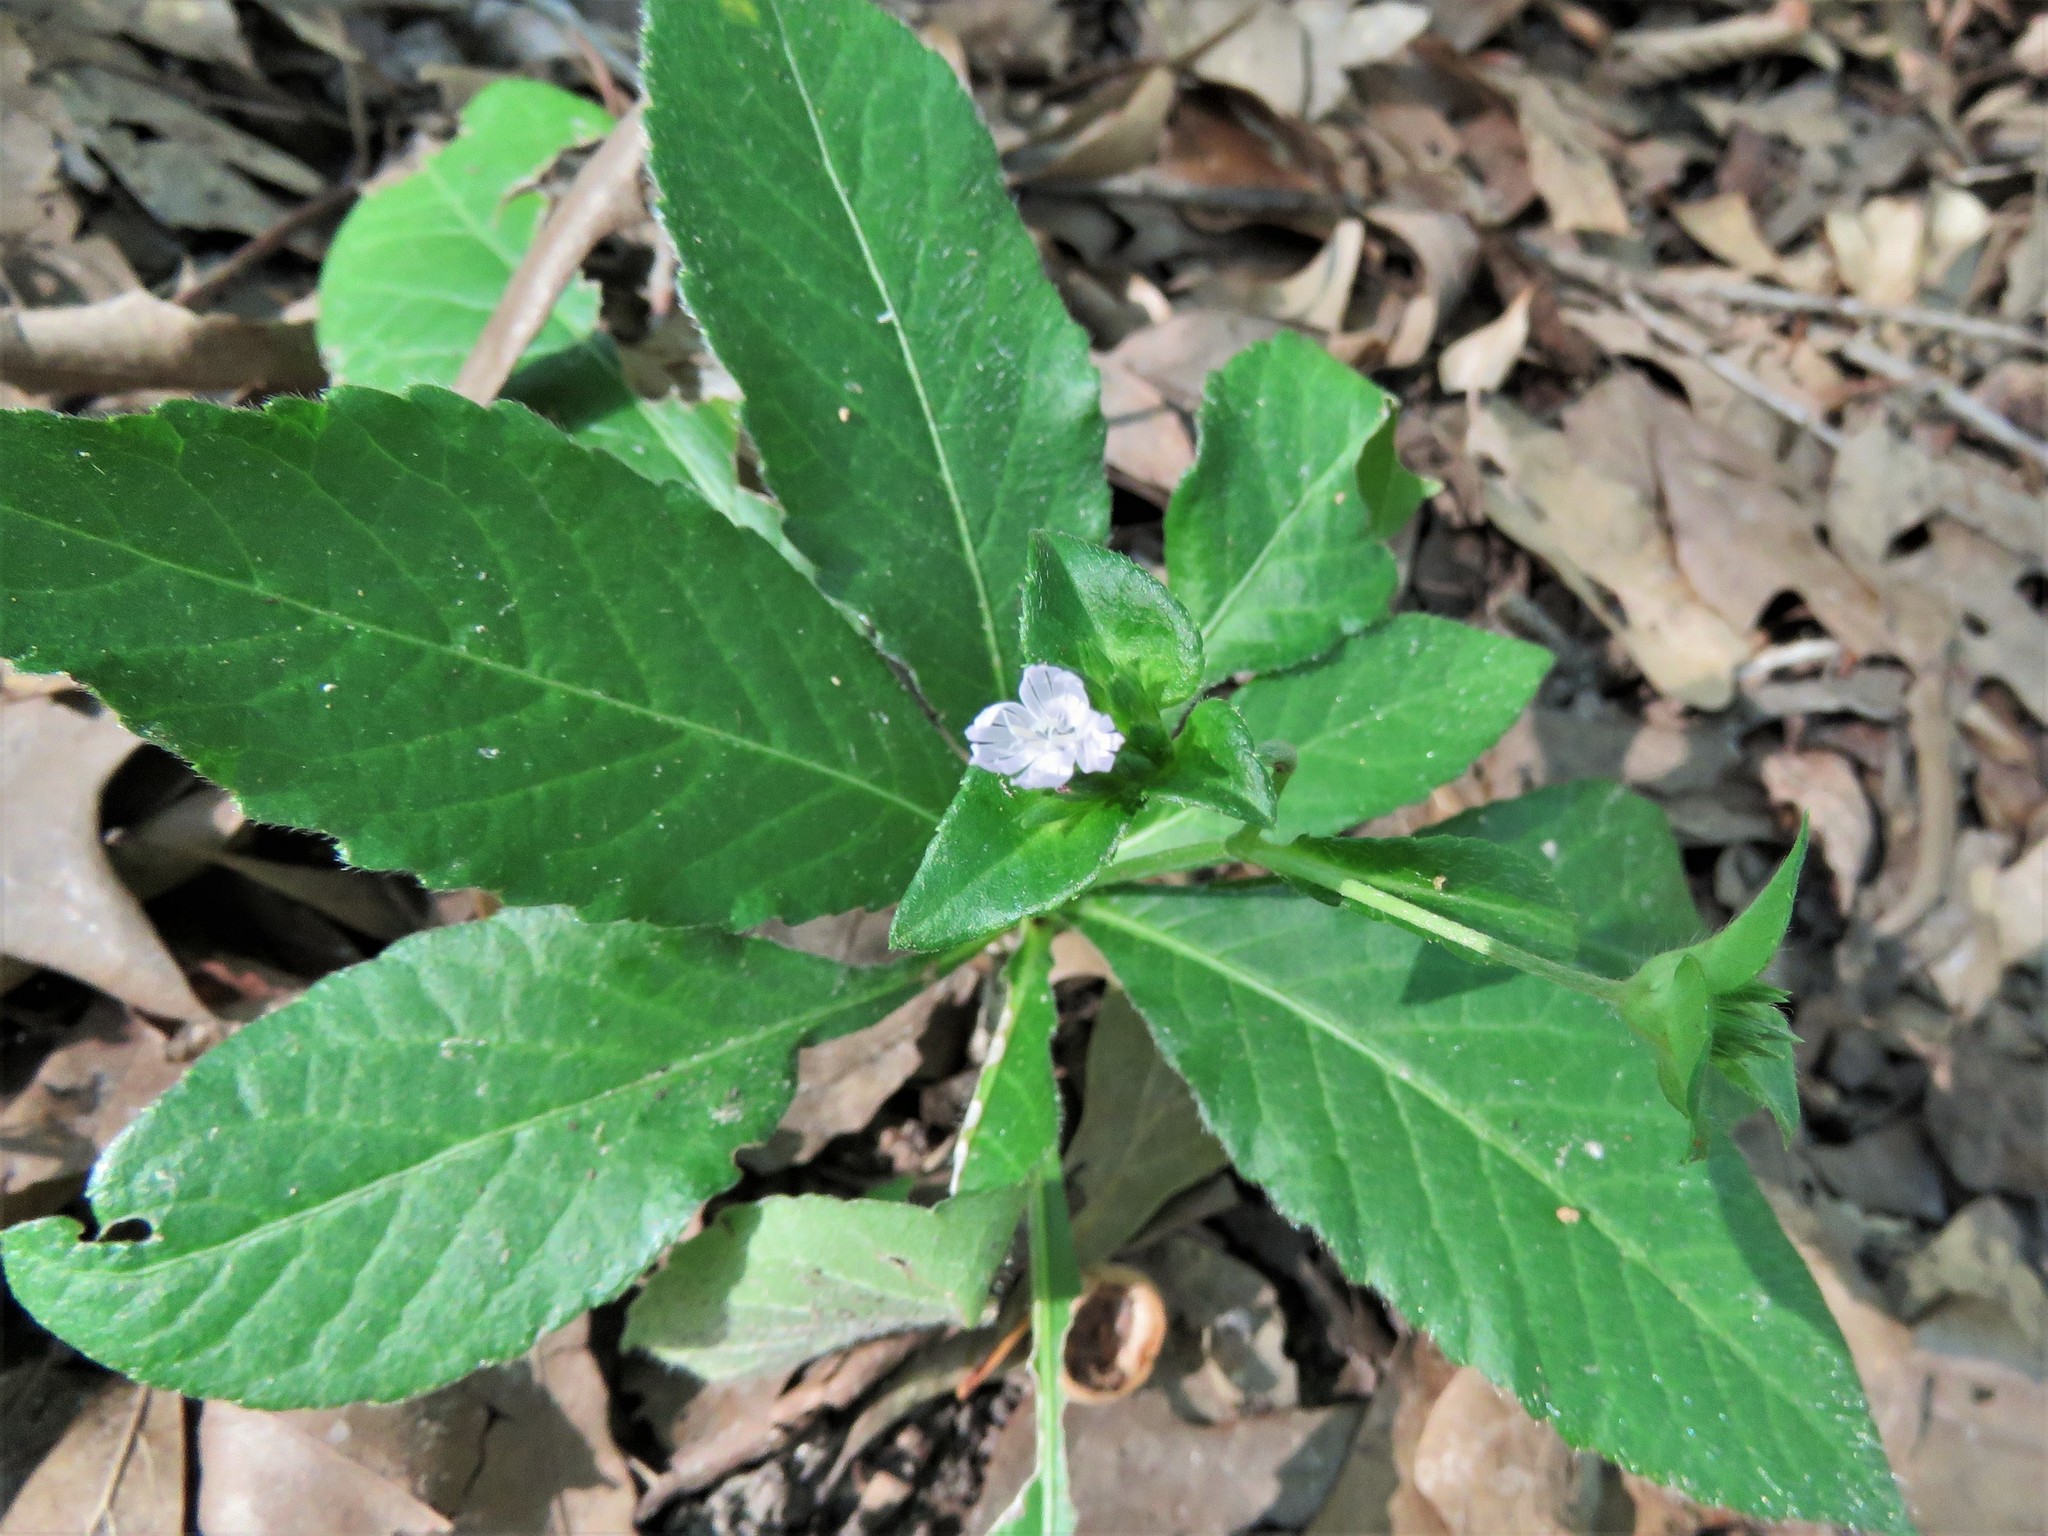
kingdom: Plantae
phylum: Tracheophyta
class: Magnoliopsida
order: Asterales
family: Asteraceae
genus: Elephantopus
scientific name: Elephantopus carolinianus
